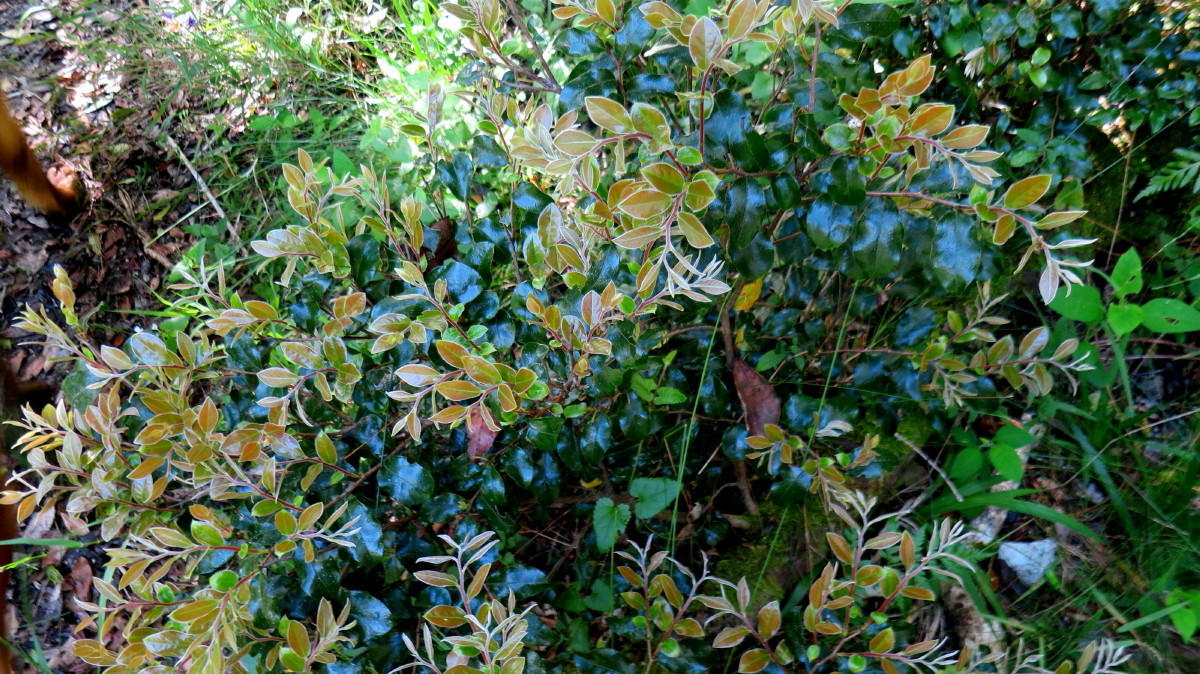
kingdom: Plantae
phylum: Tracheophyta
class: Magnoliopsida
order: Ericales
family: Ebenaceae
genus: Diospyros
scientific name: Diospyros whyteana
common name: Bladder-nut
